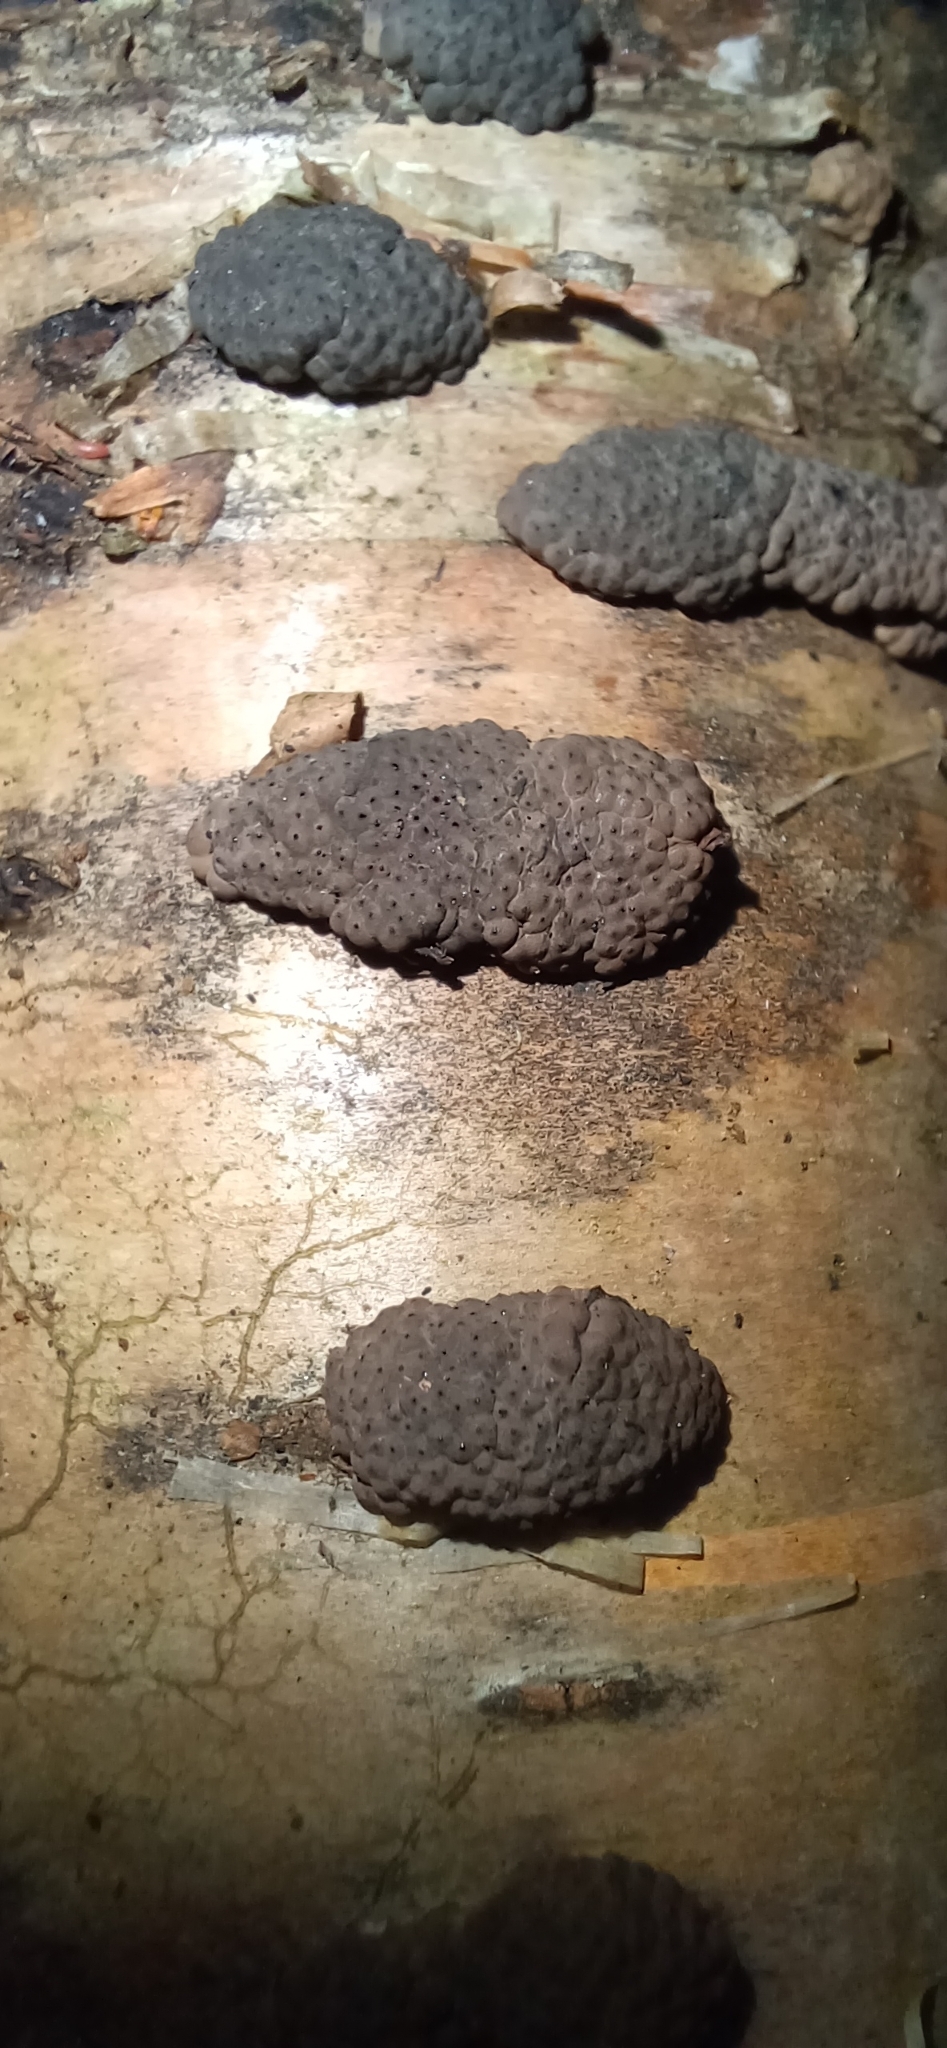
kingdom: Fungi
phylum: Ascomycota
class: Sordariomycetes
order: Xylariales
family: Hypoxylaceae
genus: Jackrogersella
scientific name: Jackrogersella multiformis
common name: Birch woodwart
